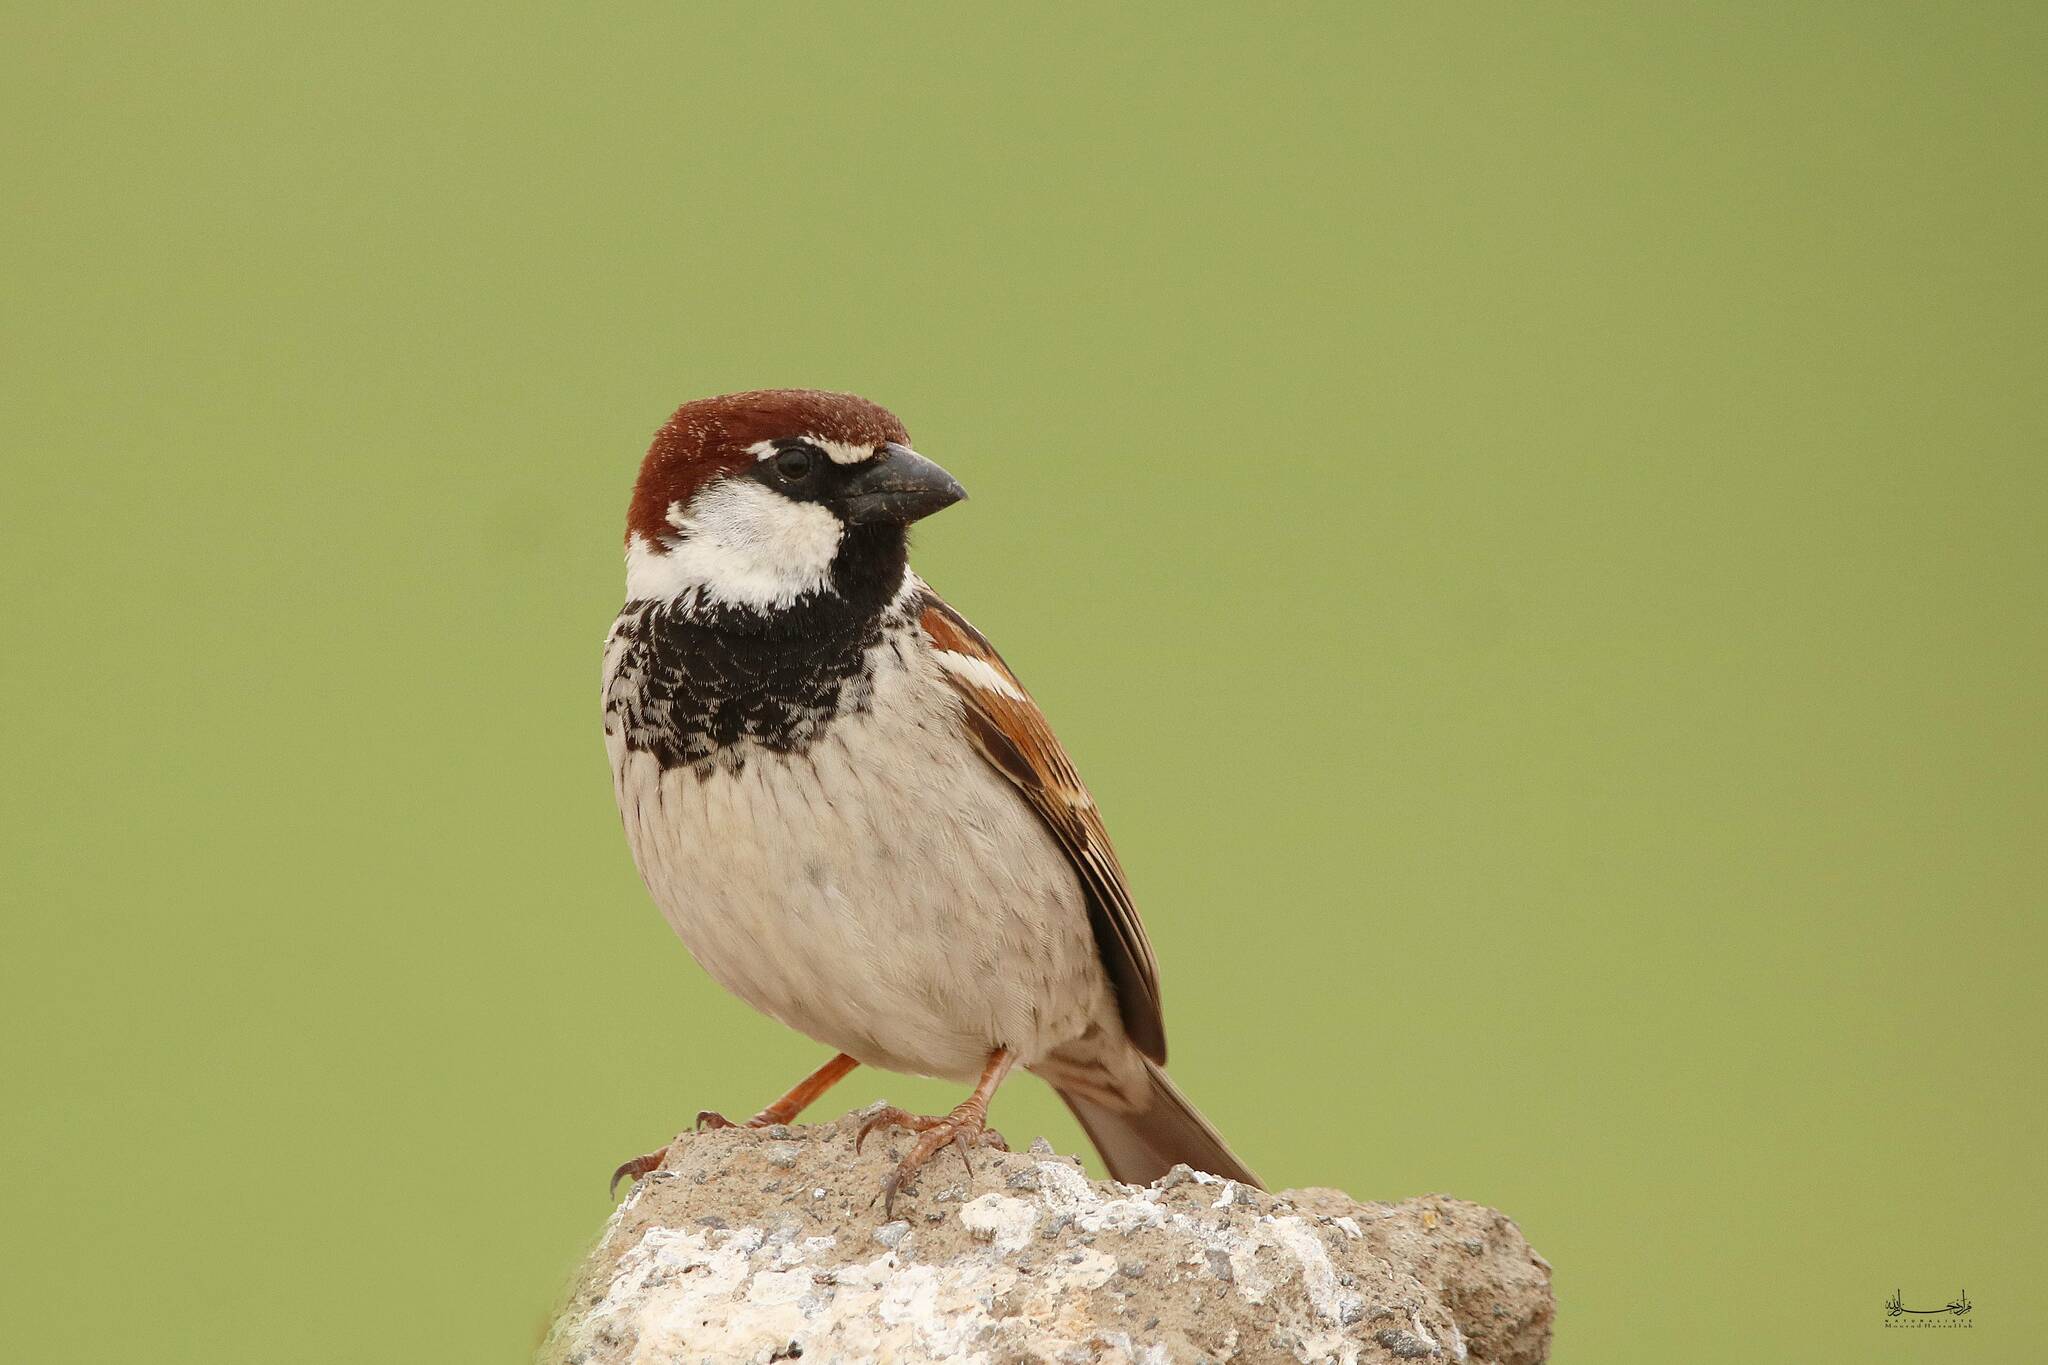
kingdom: Animalia
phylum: Chordata
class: Aves
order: Passeriformes
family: Passeridae
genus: Passer
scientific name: Passer italiae
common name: Italian sparrow
